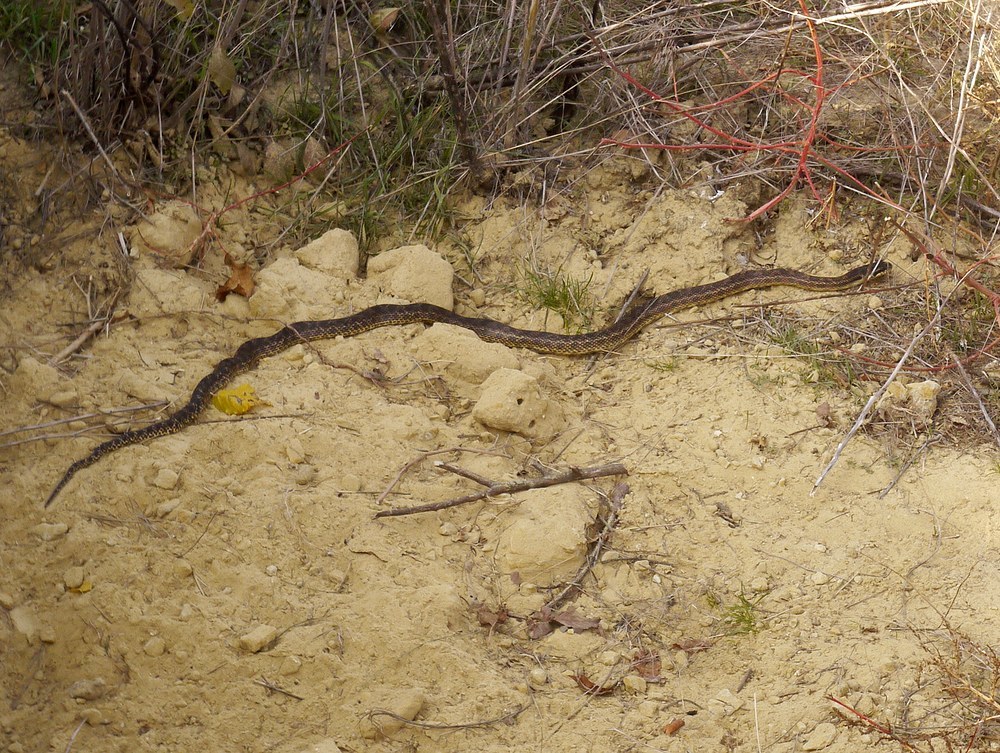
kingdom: Animalia
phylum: Chordata
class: Squamata
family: Colubridae
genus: Elaphe
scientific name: Elaphe sauromates
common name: Eastern four-lined ratsnake
